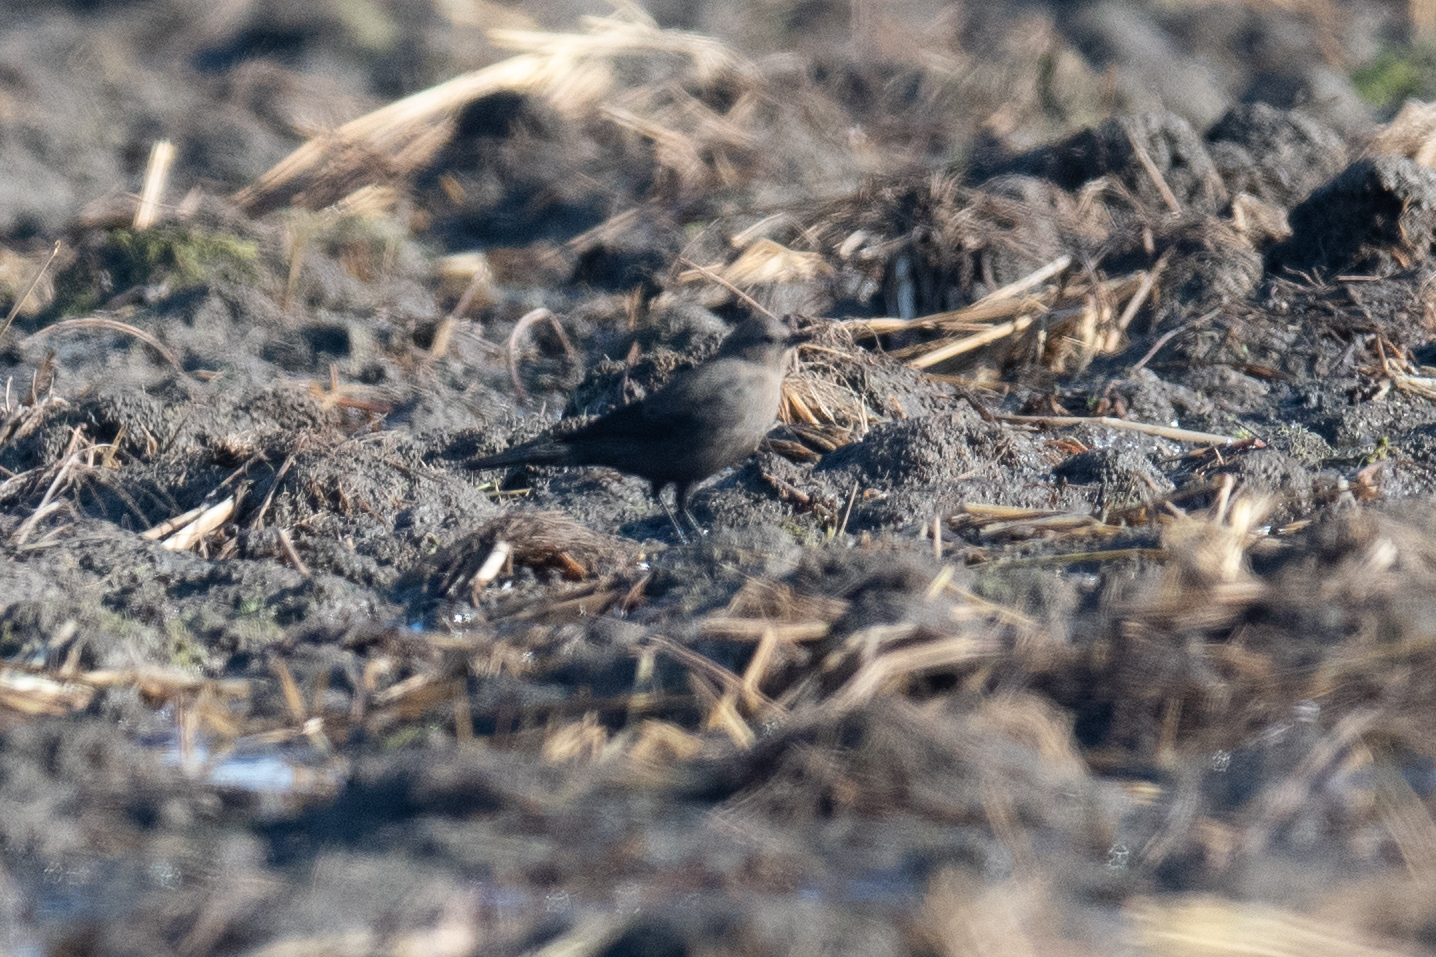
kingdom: Animalia
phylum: Chordata
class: Aves
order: Passeriformes
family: Icteridae
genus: Euphagus
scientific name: Euphagus cyanocephalus
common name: Brewer's blackbird
